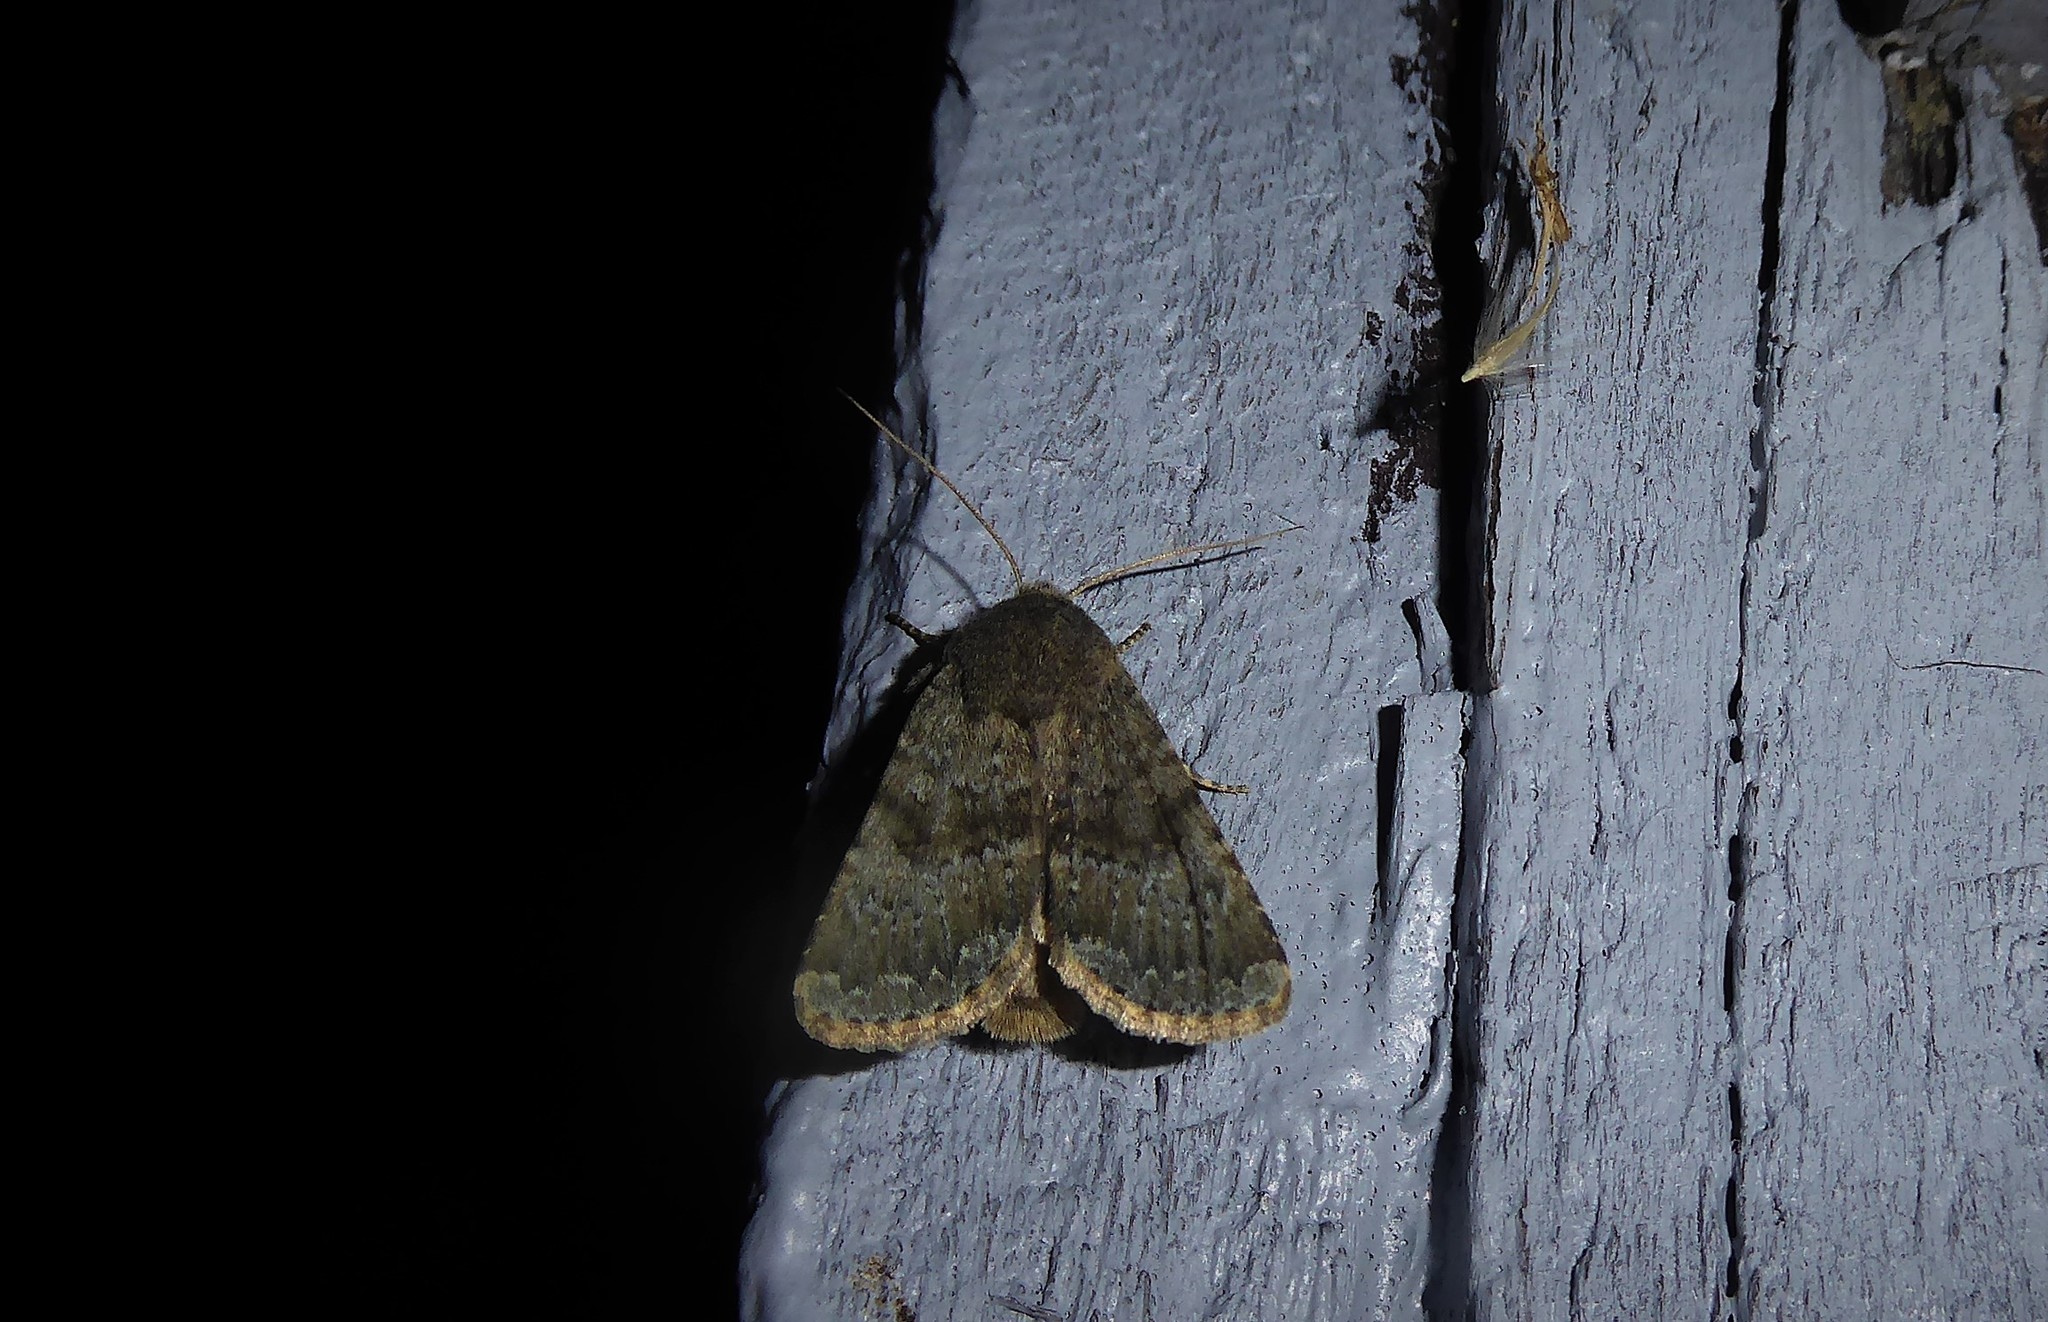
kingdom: Animalia
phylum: Arthropoda
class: Insecta
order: Lepidoptera
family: Noctuidae
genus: Ichneutica
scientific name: Ichneutica moderata
